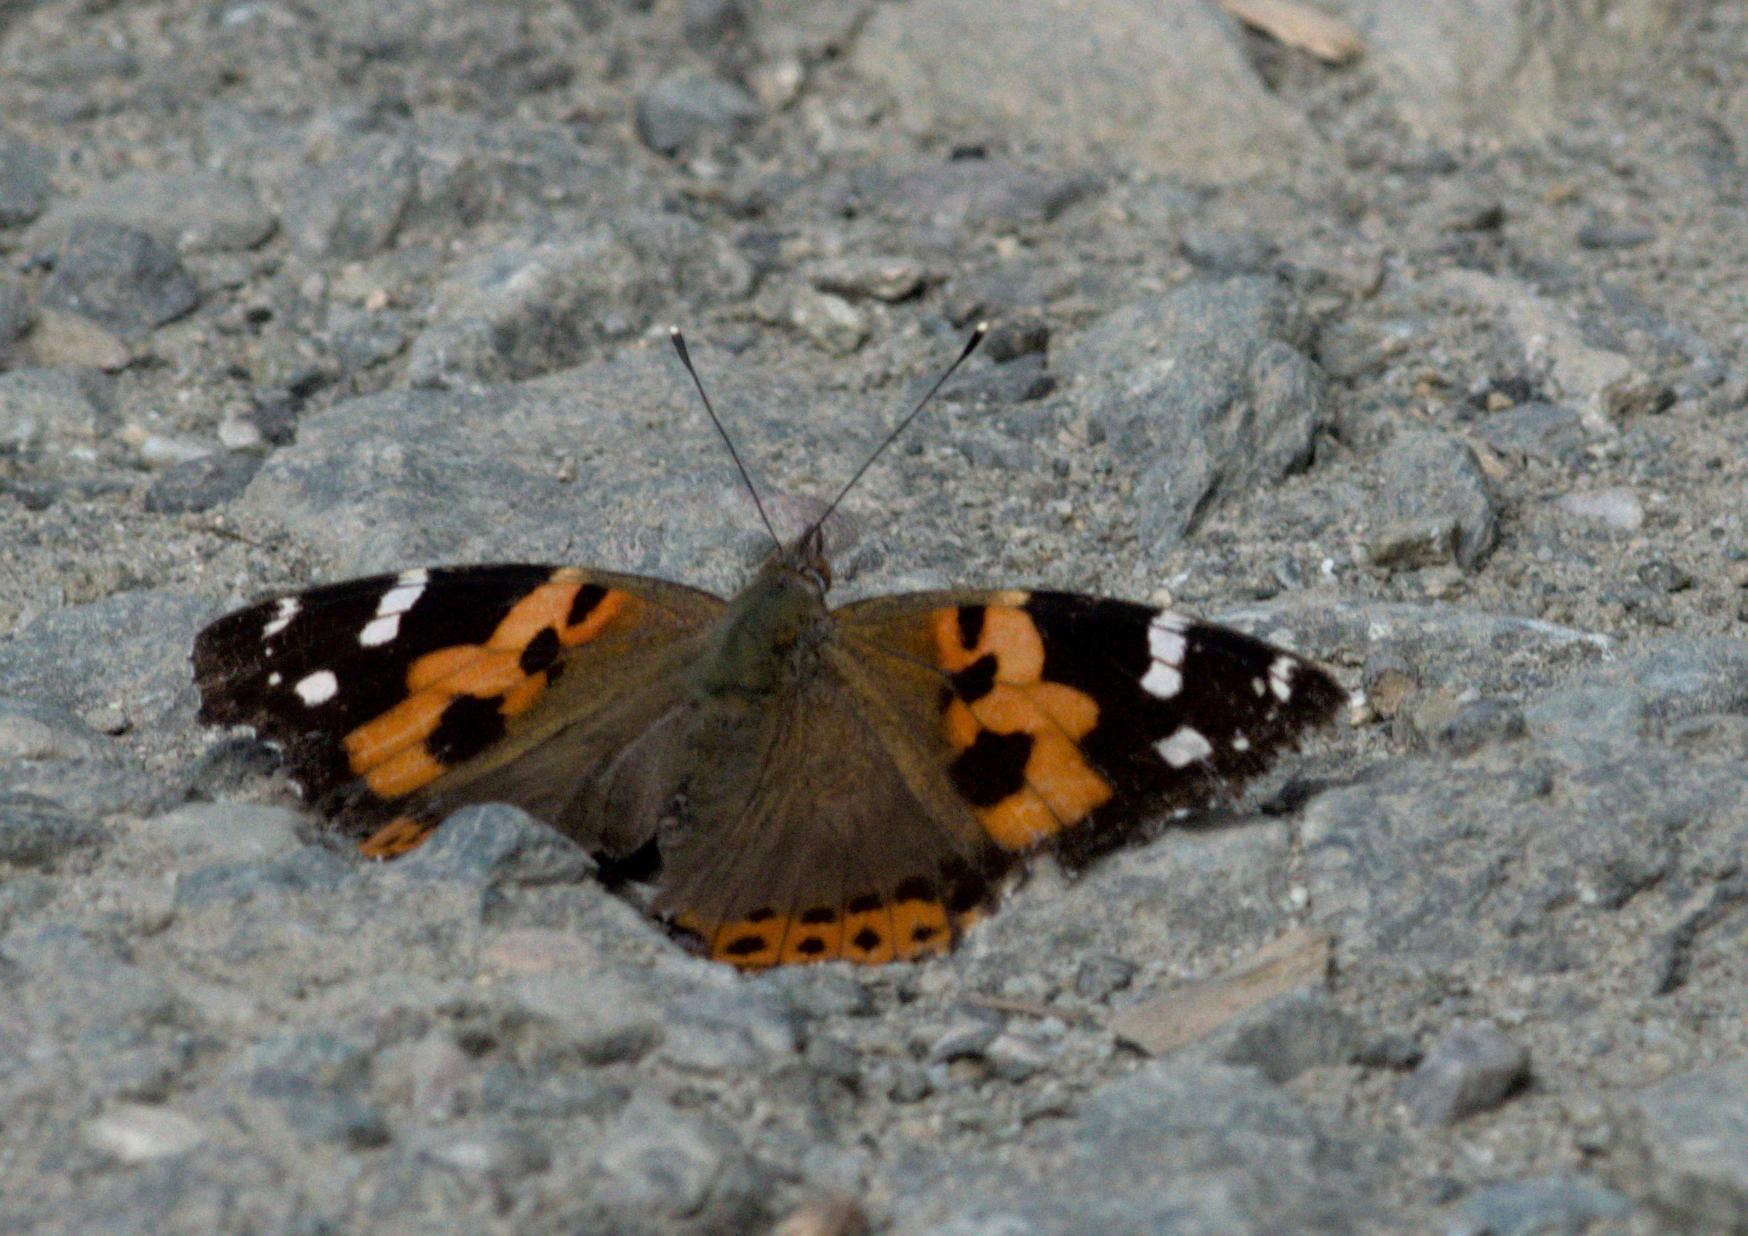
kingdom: Animalia
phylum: Arthropoda
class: Insecta
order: Lepidoptera
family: Nymphalidae
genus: Vanessa
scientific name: Vanessa indica
